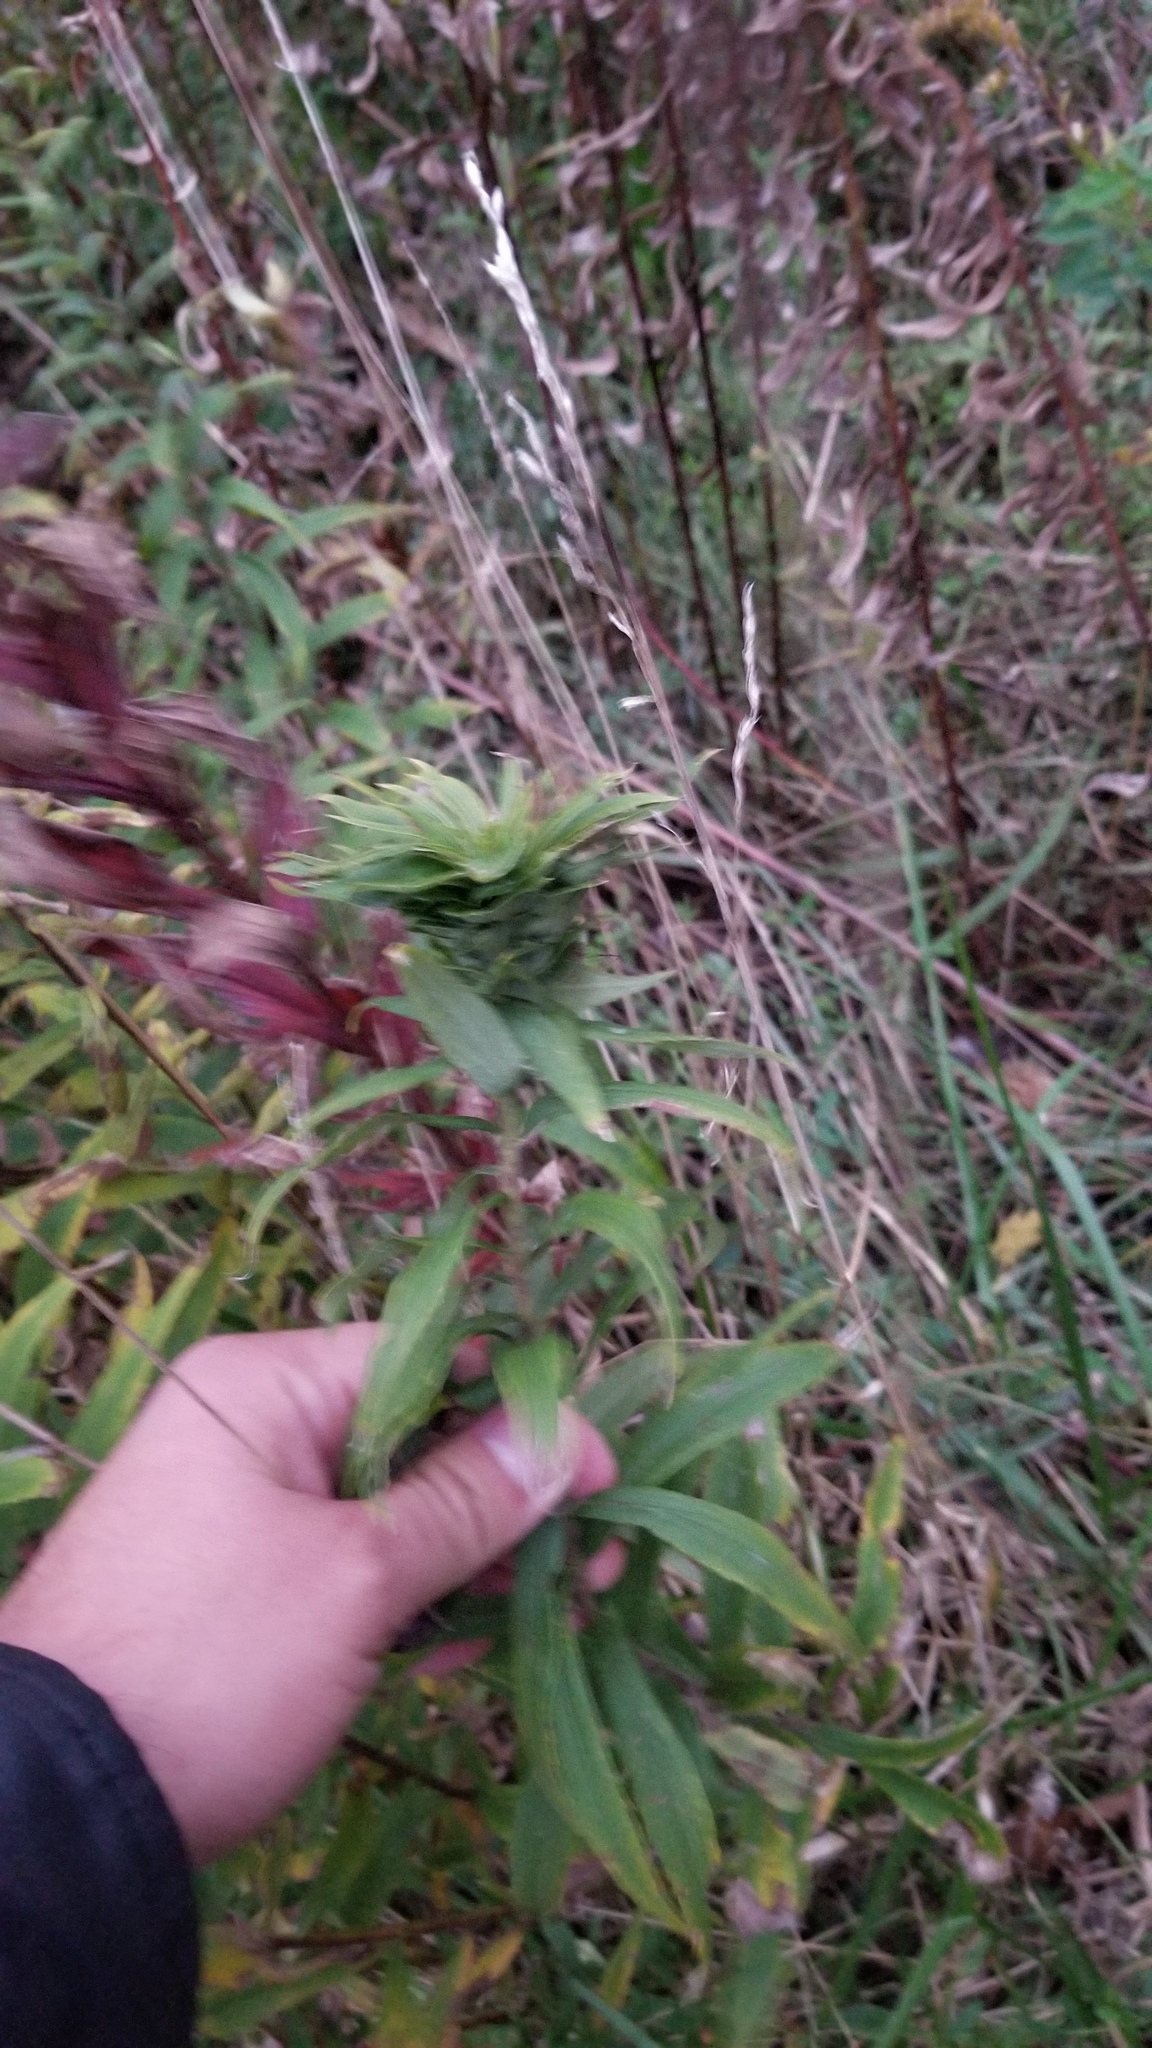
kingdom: Animalia
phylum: Arthropoda
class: Insecta
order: Diptera
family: Cecidomyiidae
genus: Rhopalomyia
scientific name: Rhopalomyia solidaginis
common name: Goldenrod bunch gall midge
